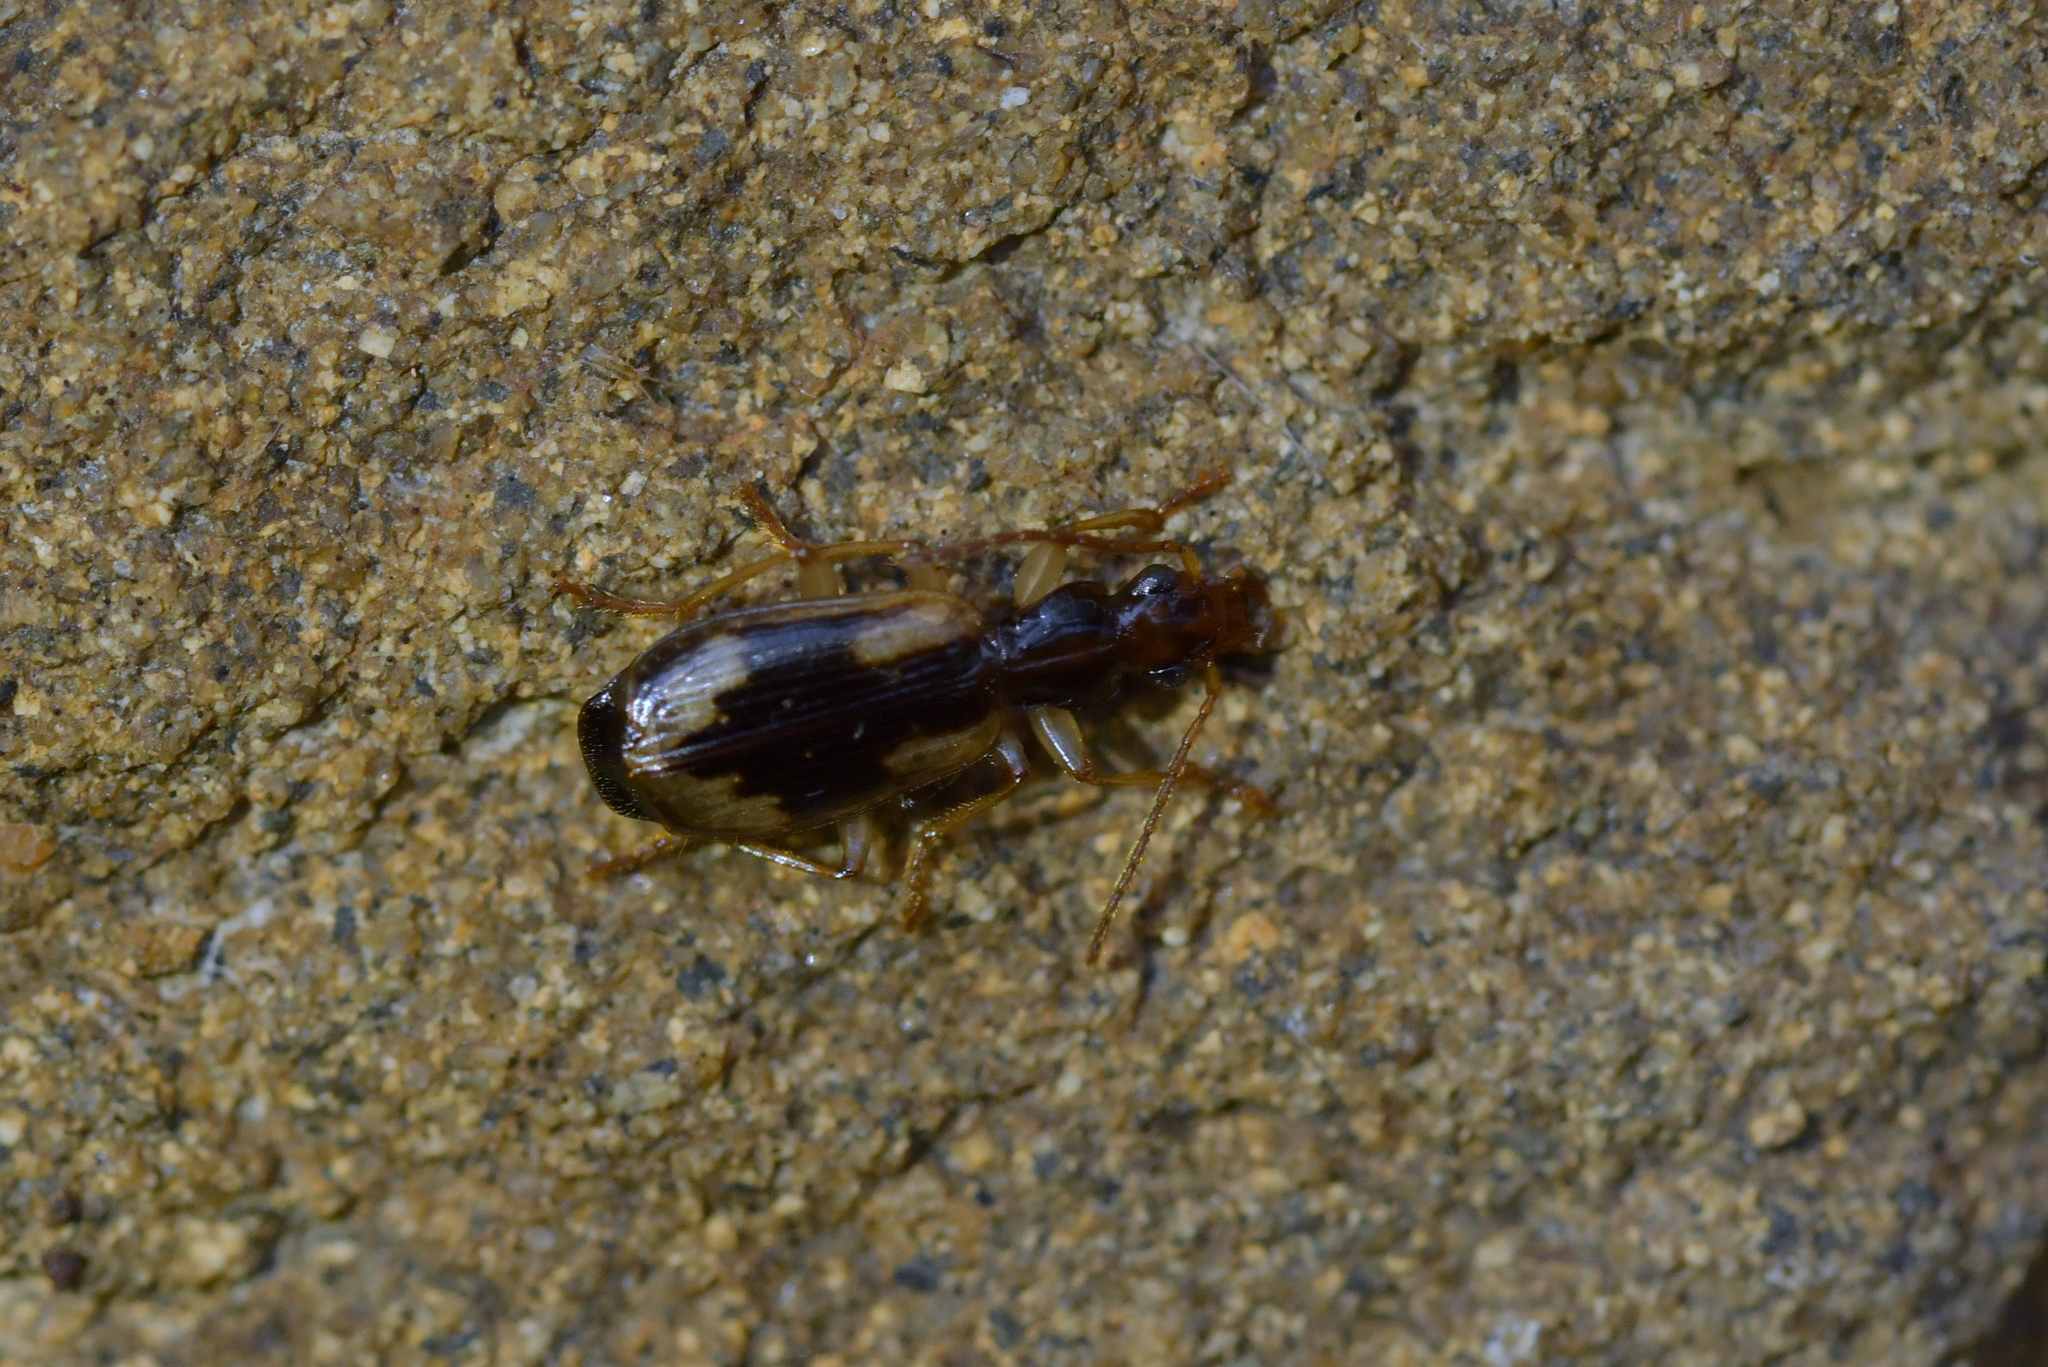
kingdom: Animalia
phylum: Arthropoda
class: Insecta
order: Coleoptera
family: Carabidae
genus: Demetrida
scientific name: Demetrida nasuta
